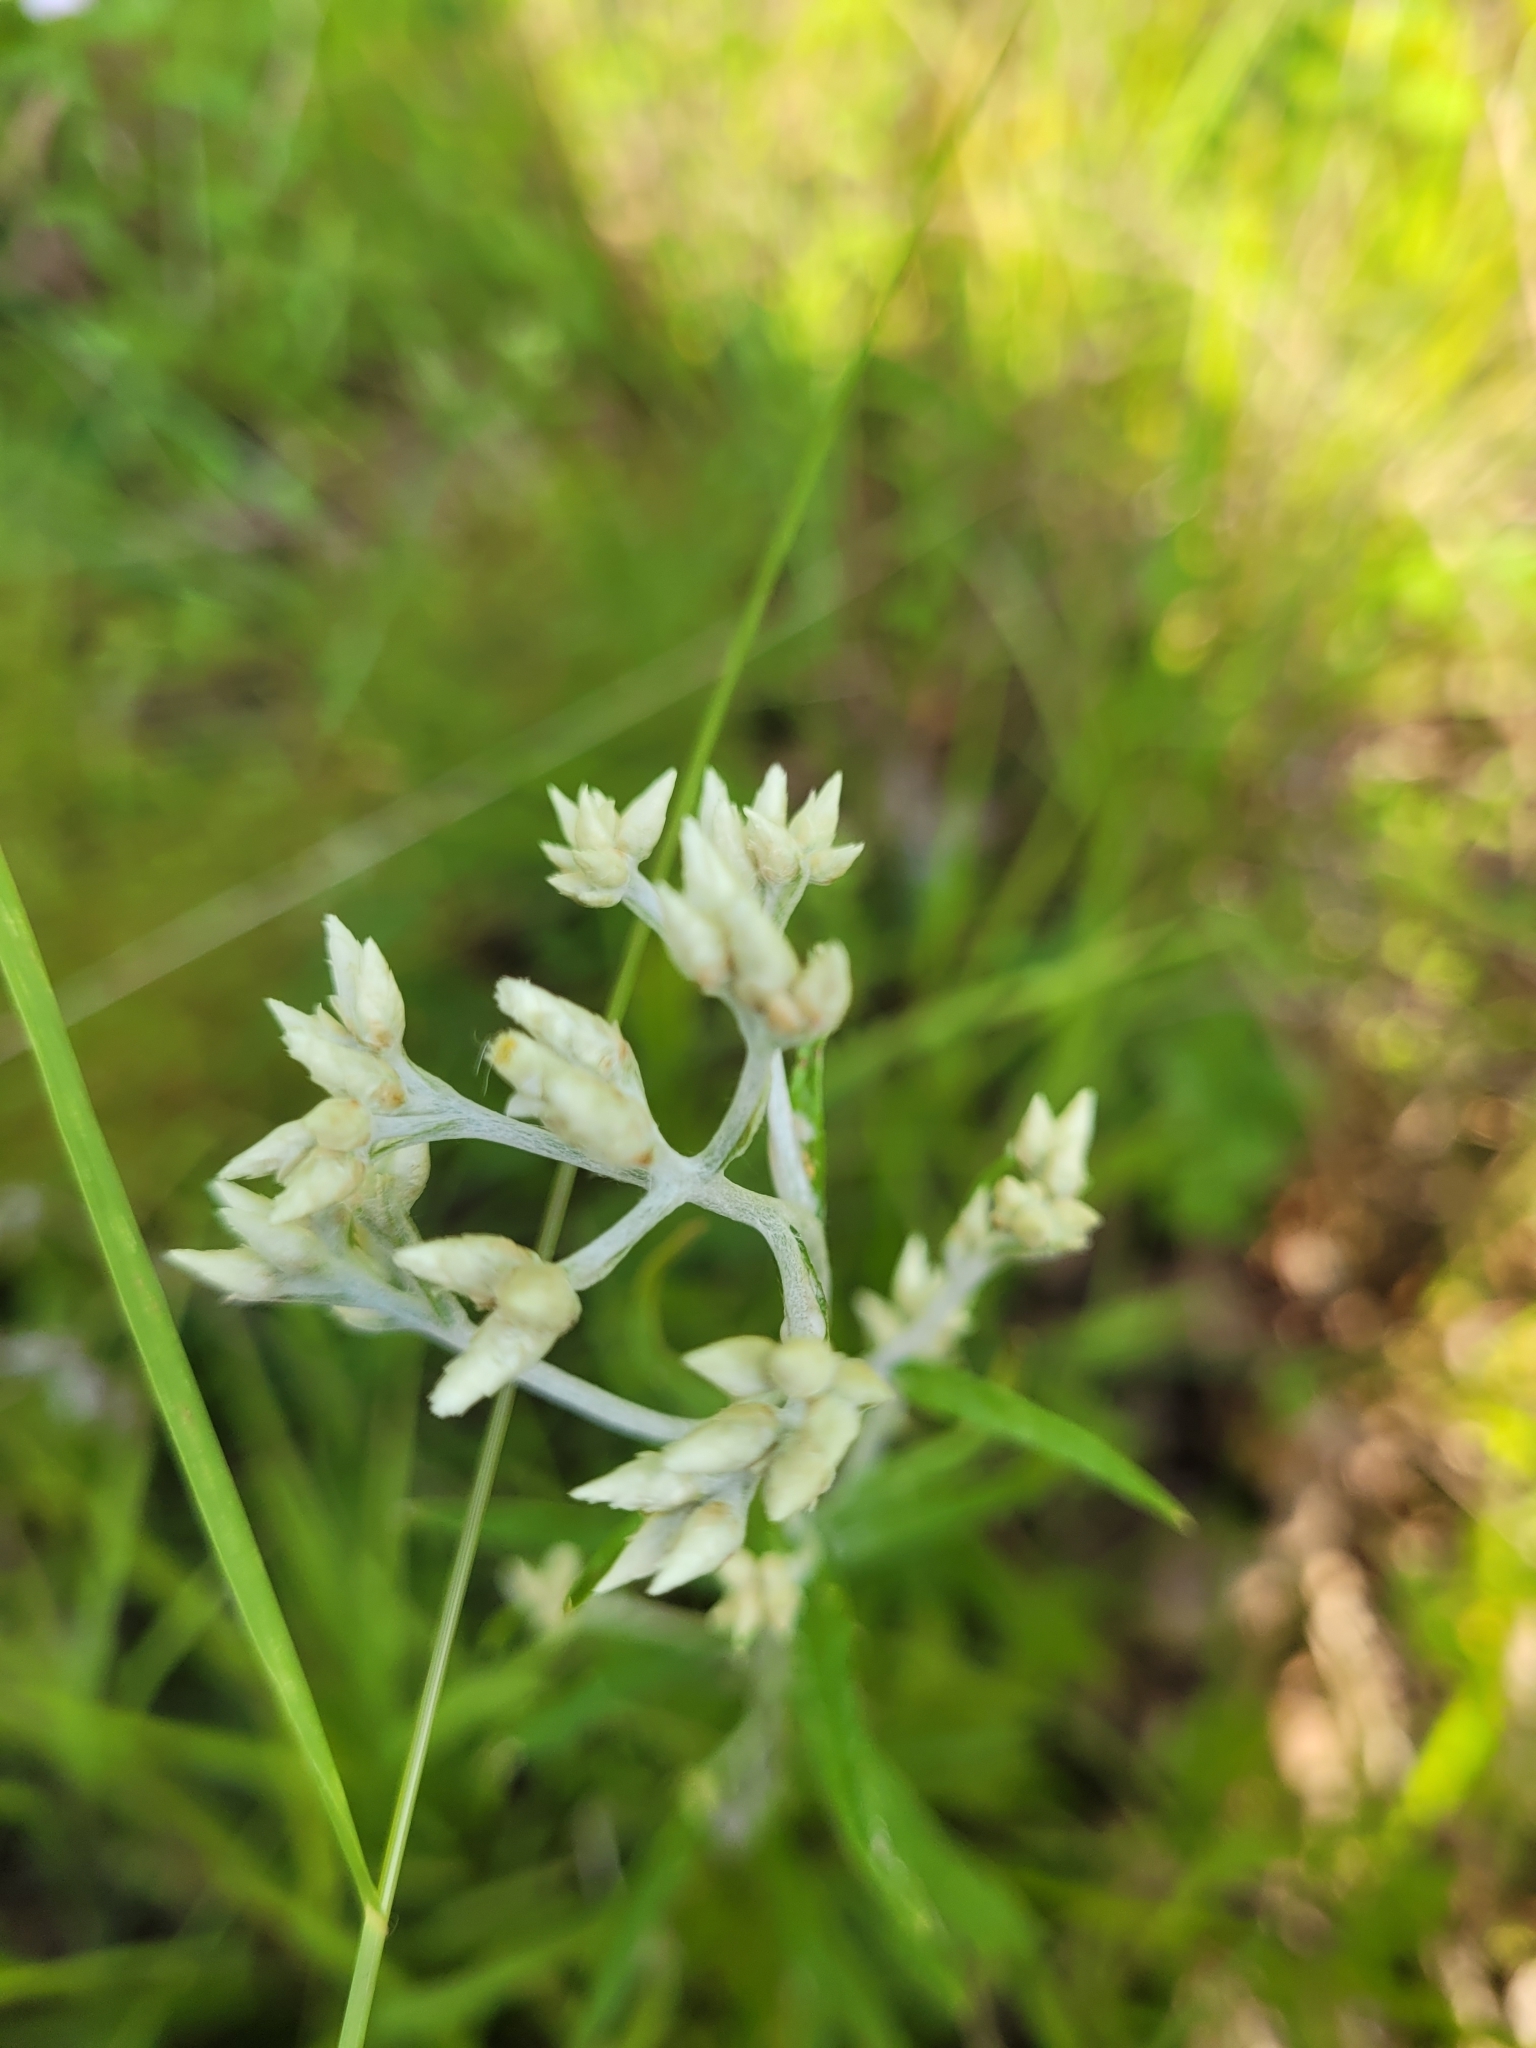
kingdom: Plantae
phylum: Tracheophyta
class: Magnoliopsida
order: Asterales
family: Asteraceae
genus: Pseudognaphalium
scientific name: Pseudognaphalium obtusifolium
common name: Eastern rabbit-tobacco
